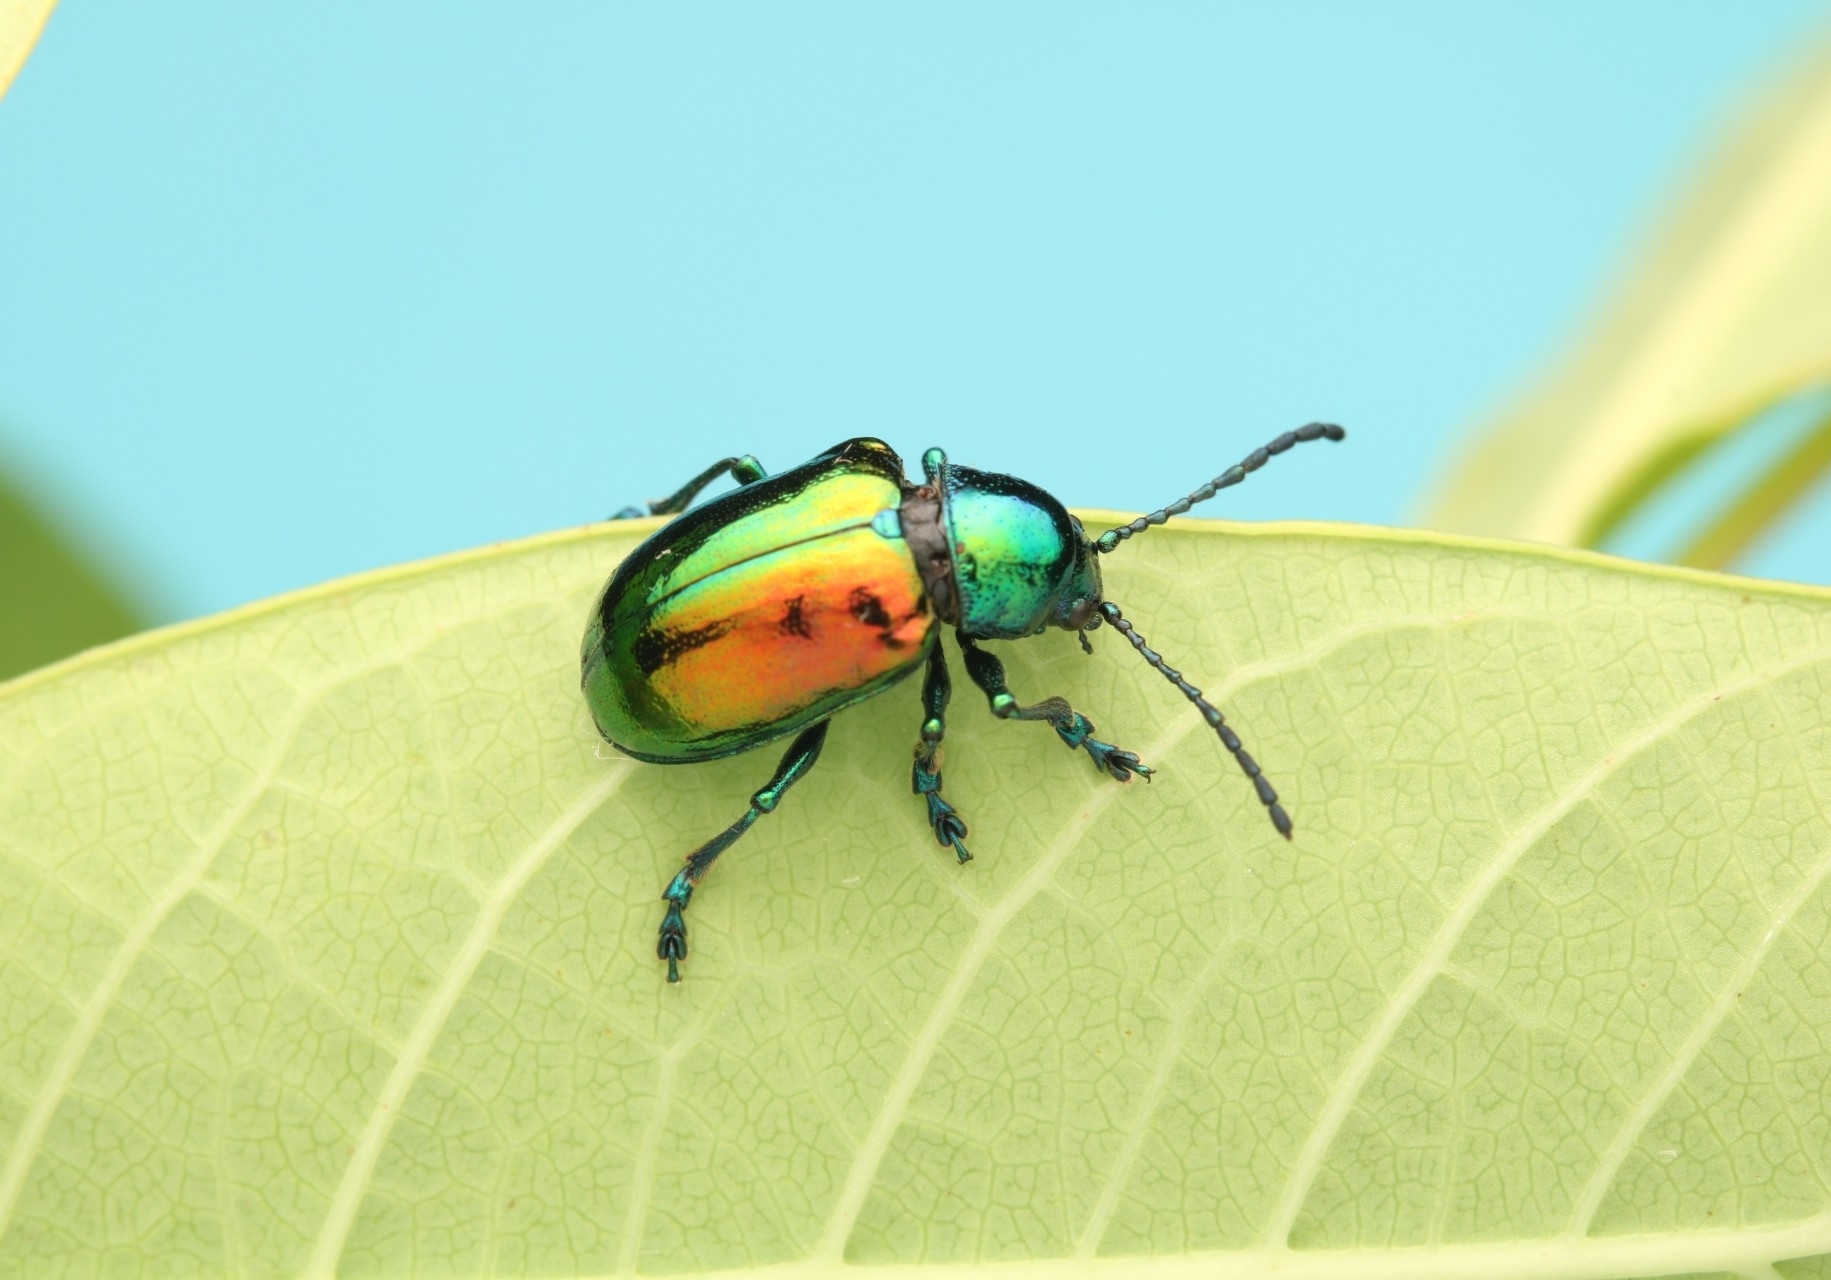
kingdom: Animalia
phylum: Arthropoda
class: Insecta
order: Coleoptera
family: Chrysomelidae
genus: Chrysochus
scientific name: Chrysochus auratus
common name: Dogbane leaf beetle
